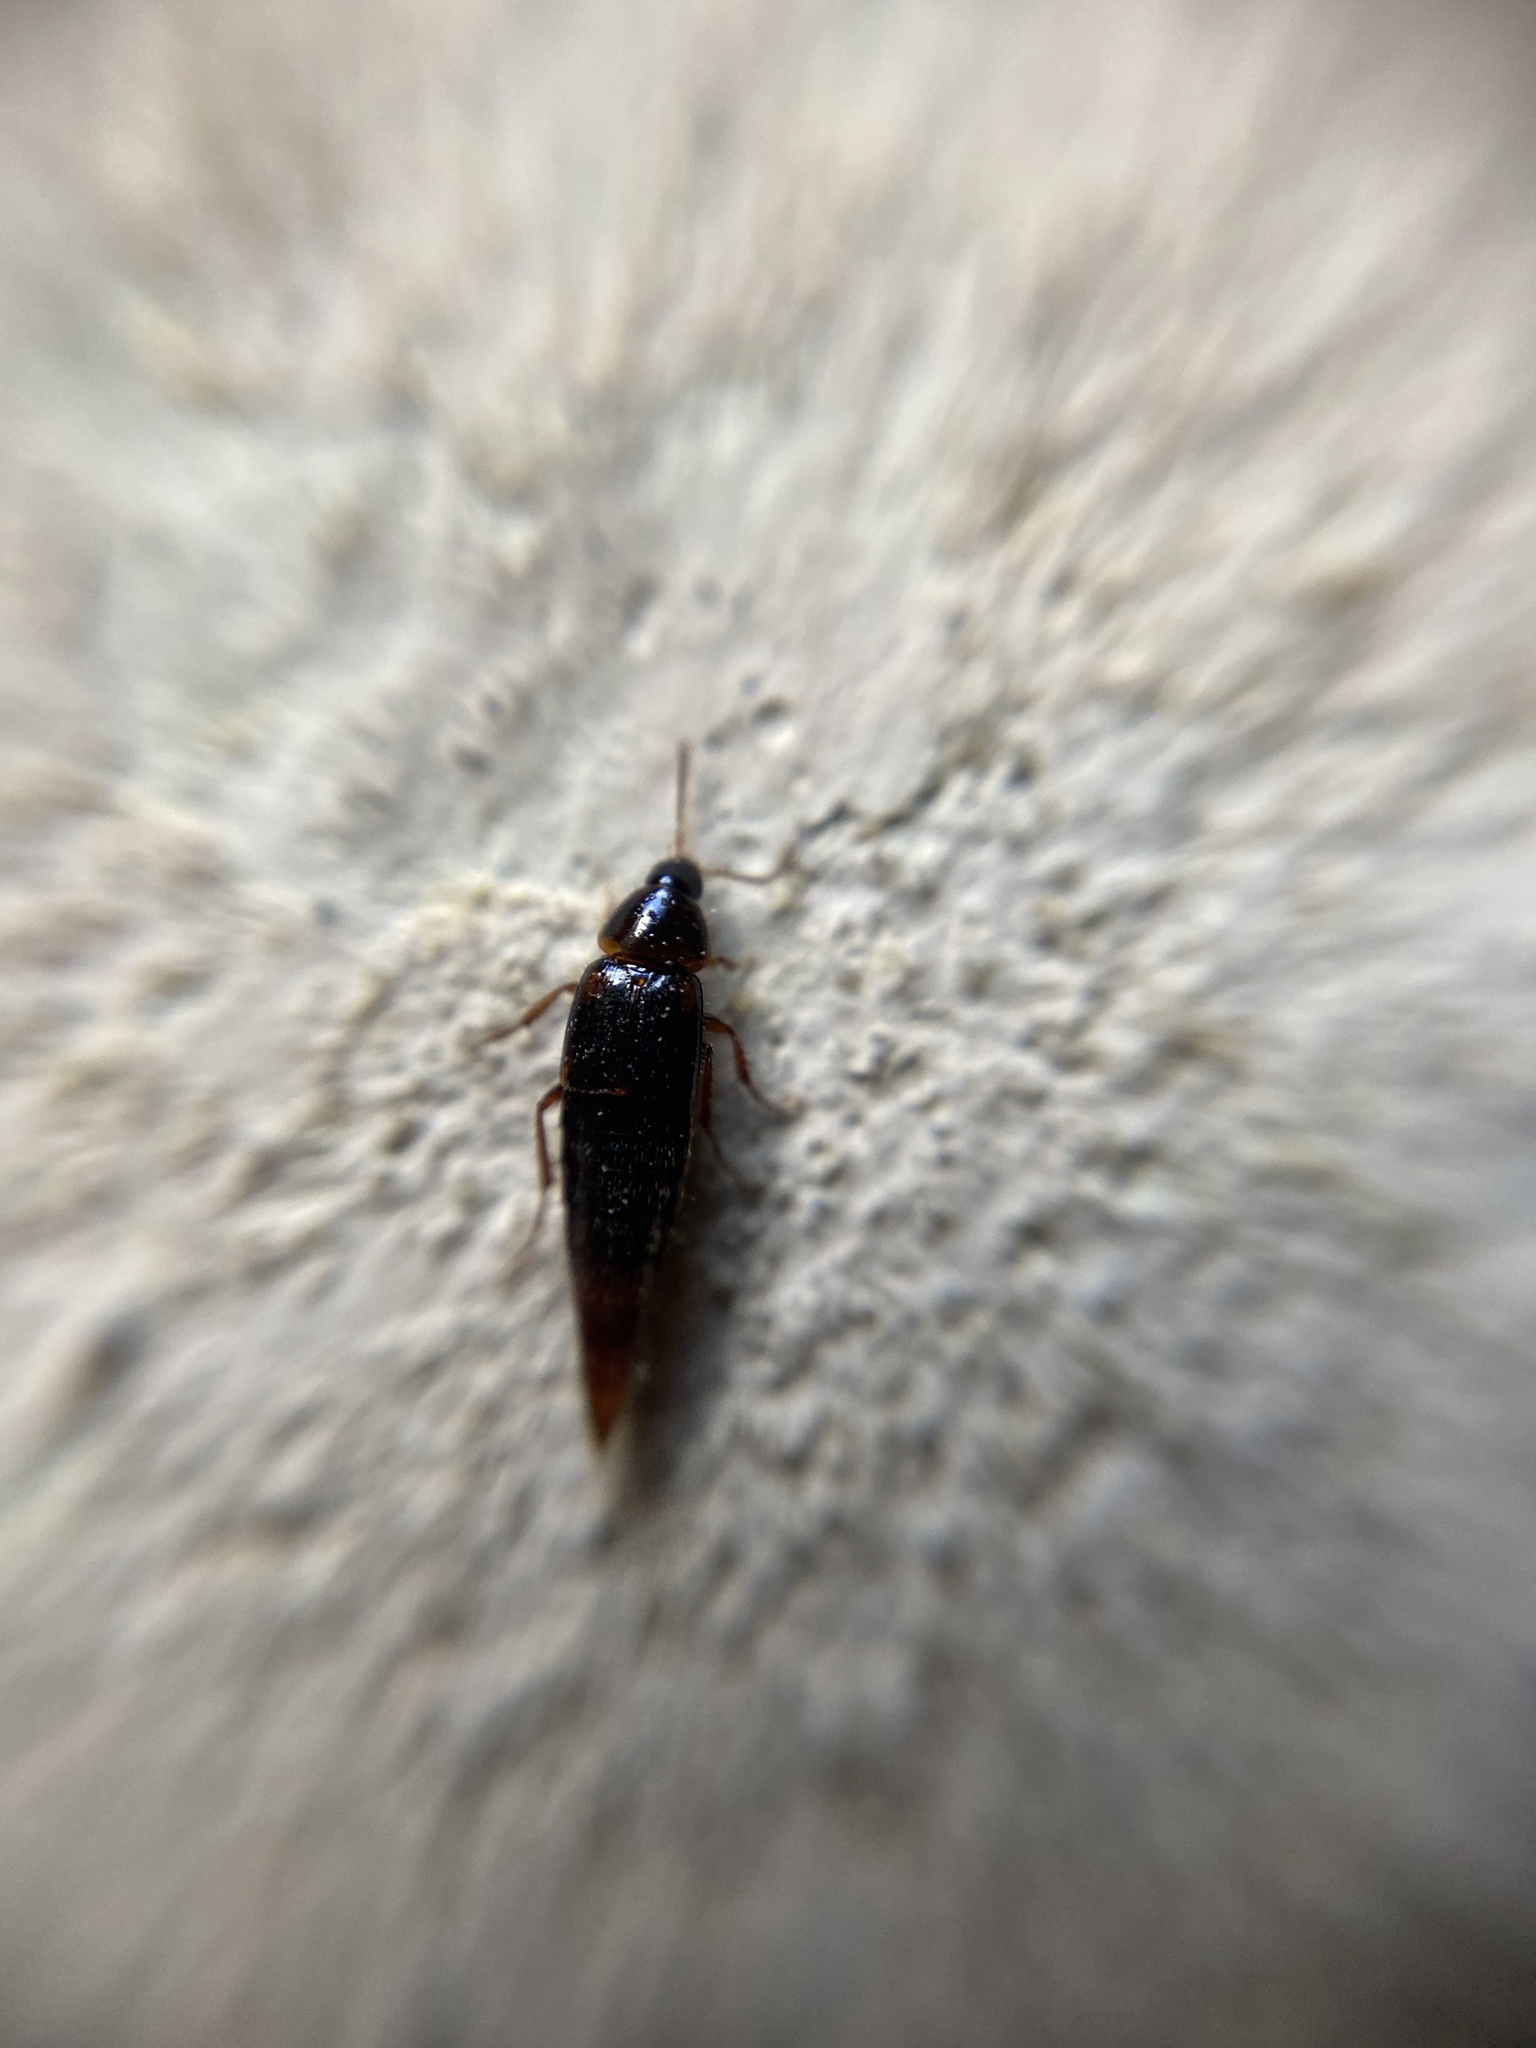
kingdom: Animalia
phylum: Arthropoda
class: Insecta
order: Coleoptera
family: Staphylinidae
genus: Mycetoporus
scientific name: Mycetoporus rufescens
